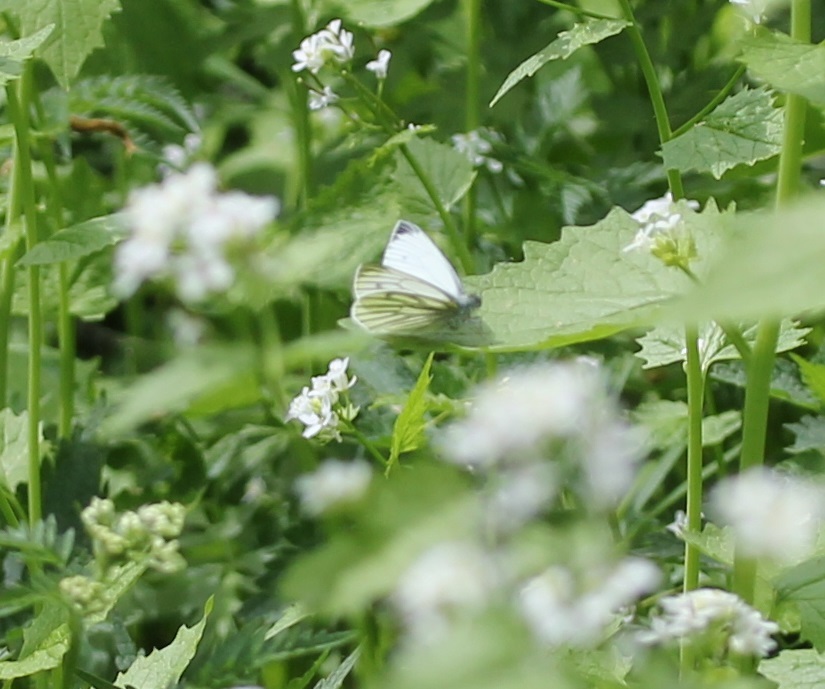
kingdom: Animalia
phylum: Arthropoda
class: Insecta
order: Lepidoptera
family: Pieridae
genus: Pieris
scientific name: Pieris napi
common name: Green-veined white
